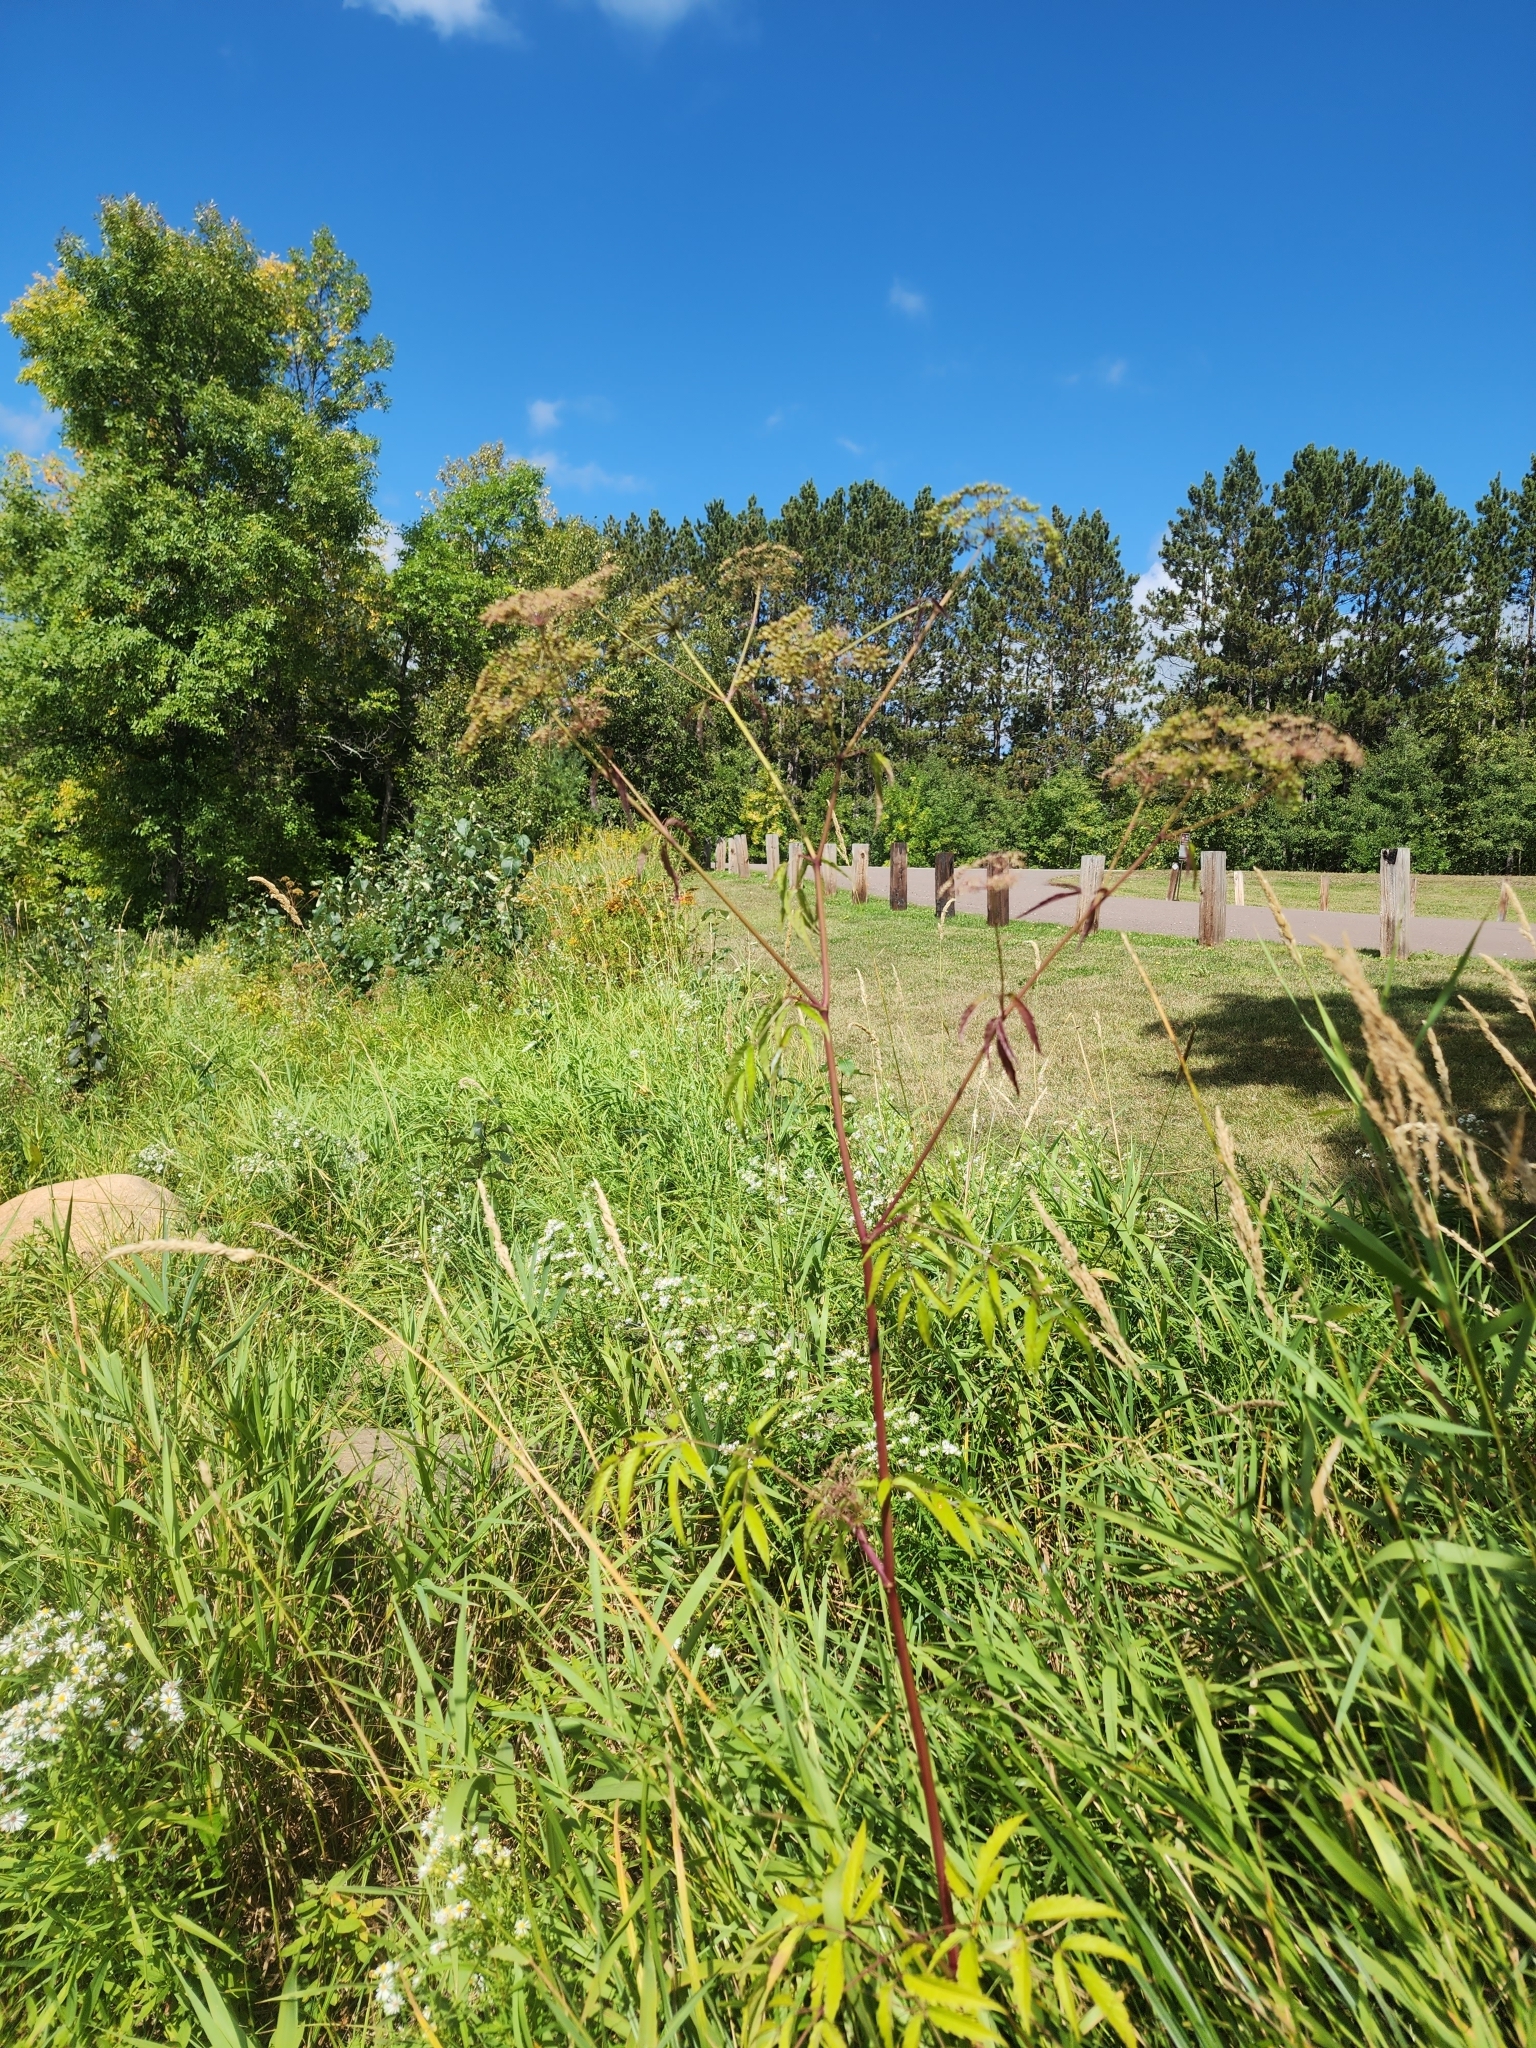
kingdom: Plantae
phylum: Tracheophyta
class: Magnoliopsida
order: Apiales
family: Apiaceae
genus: Cicuta
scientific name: Cicuta maculata
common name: Spotted cowbane
